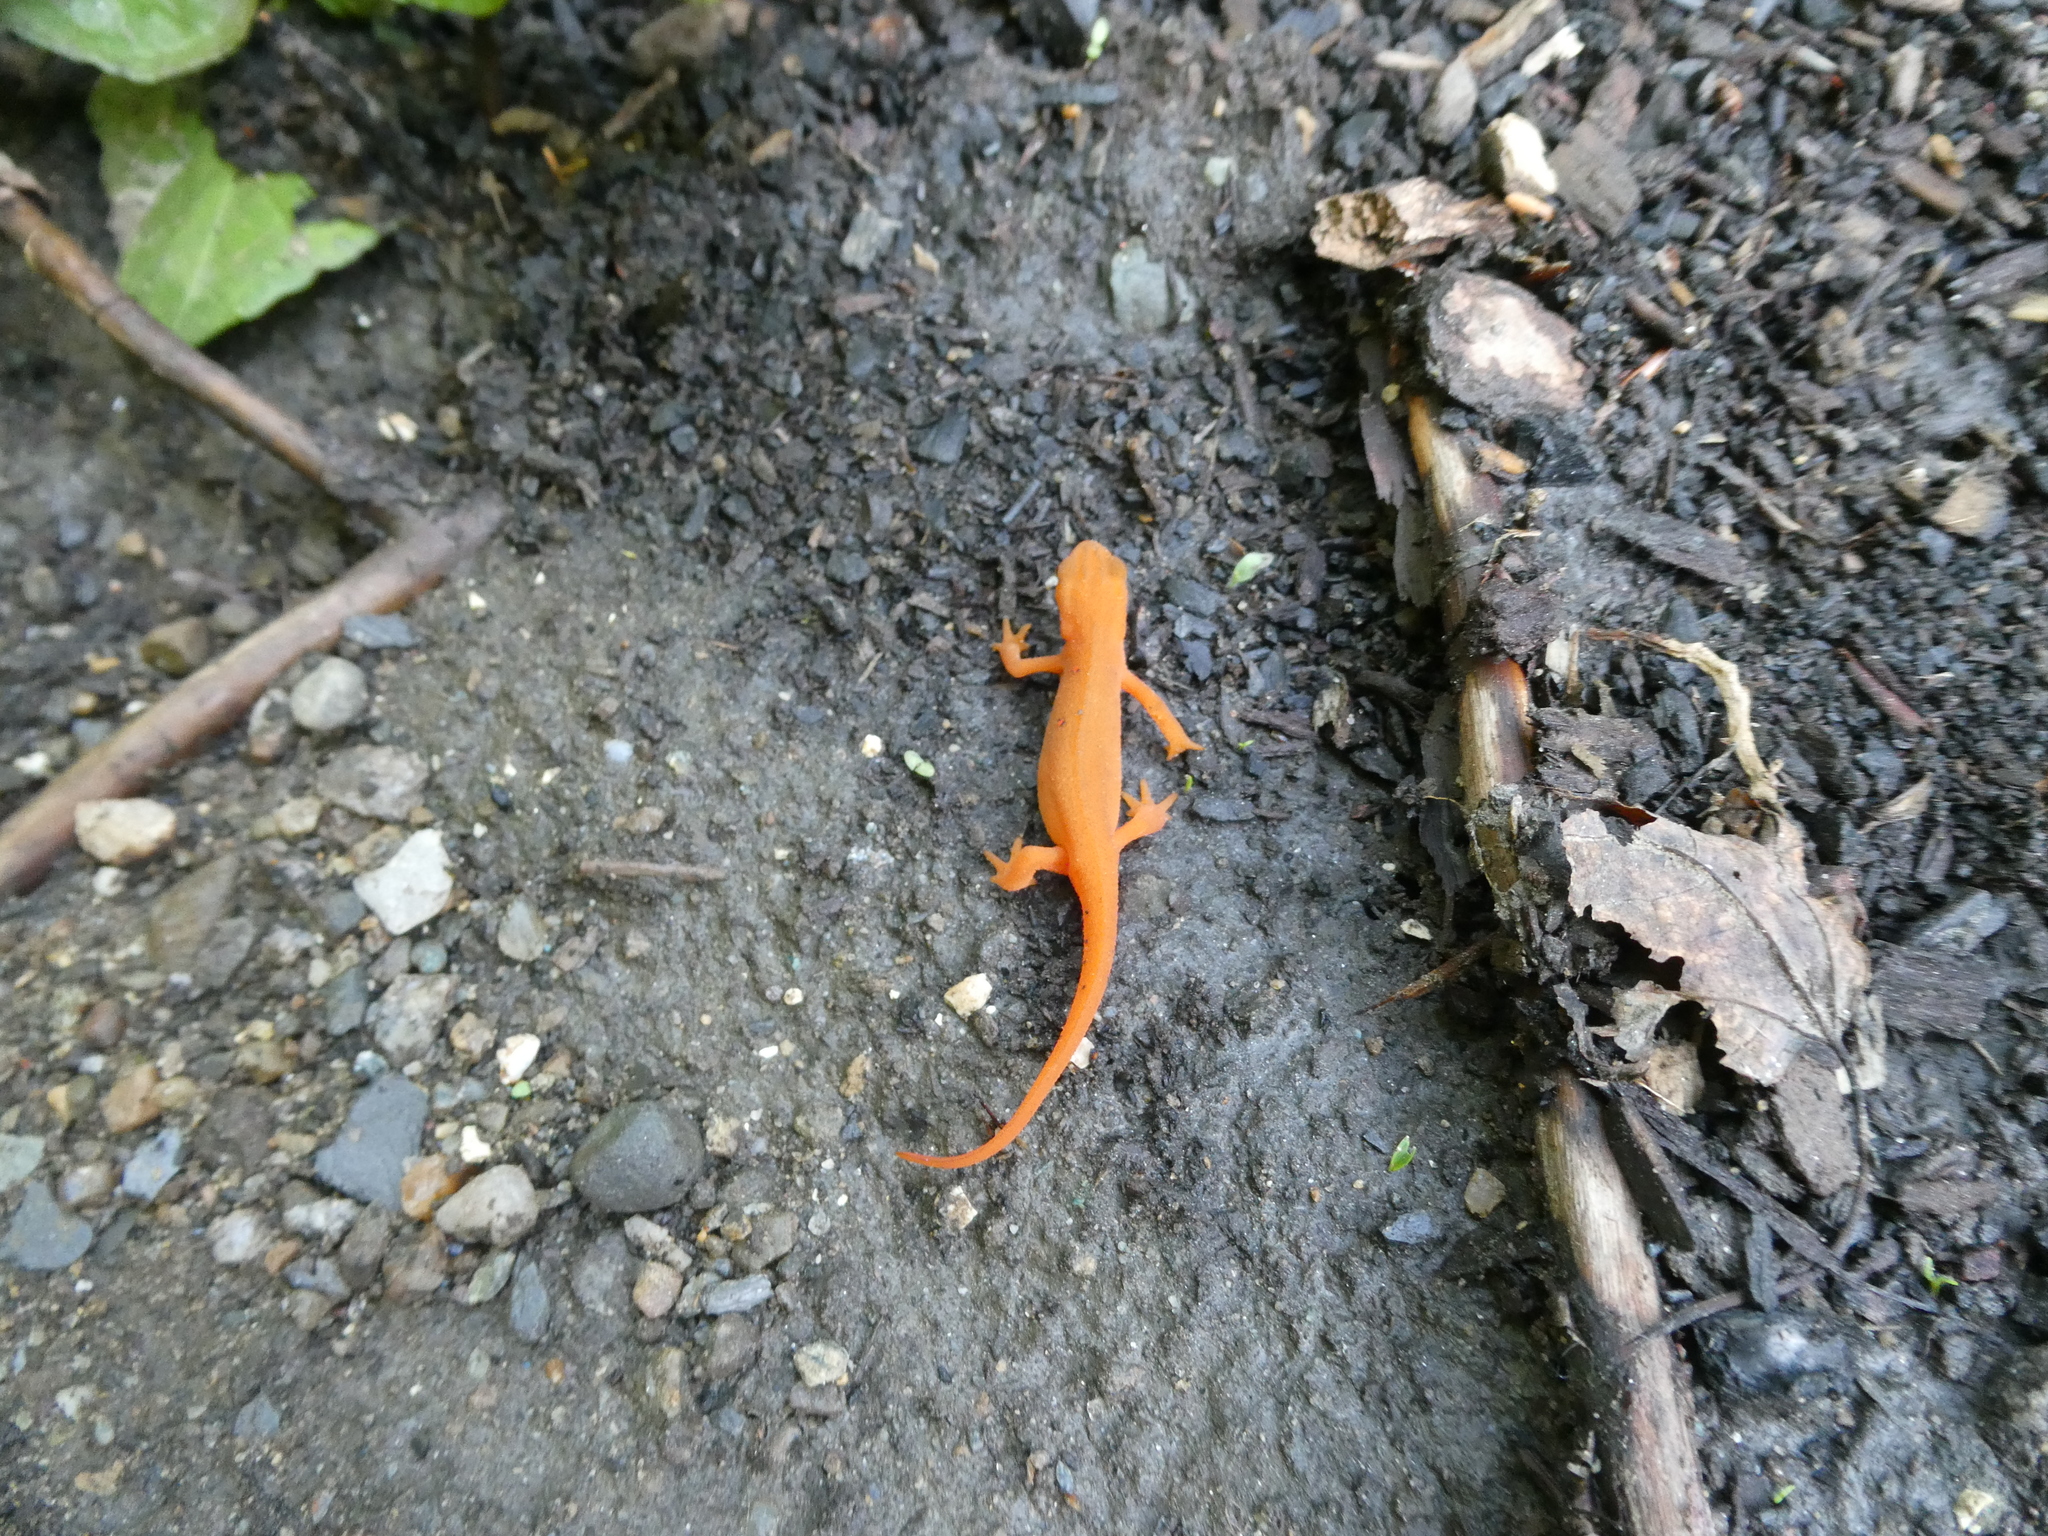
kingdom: Animalia
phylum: Chordata
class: Amphibia
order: Caudata
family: Salamandridae
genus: Notophthalmus
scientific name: Notophthalmus viridescens
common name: Eastern newt
